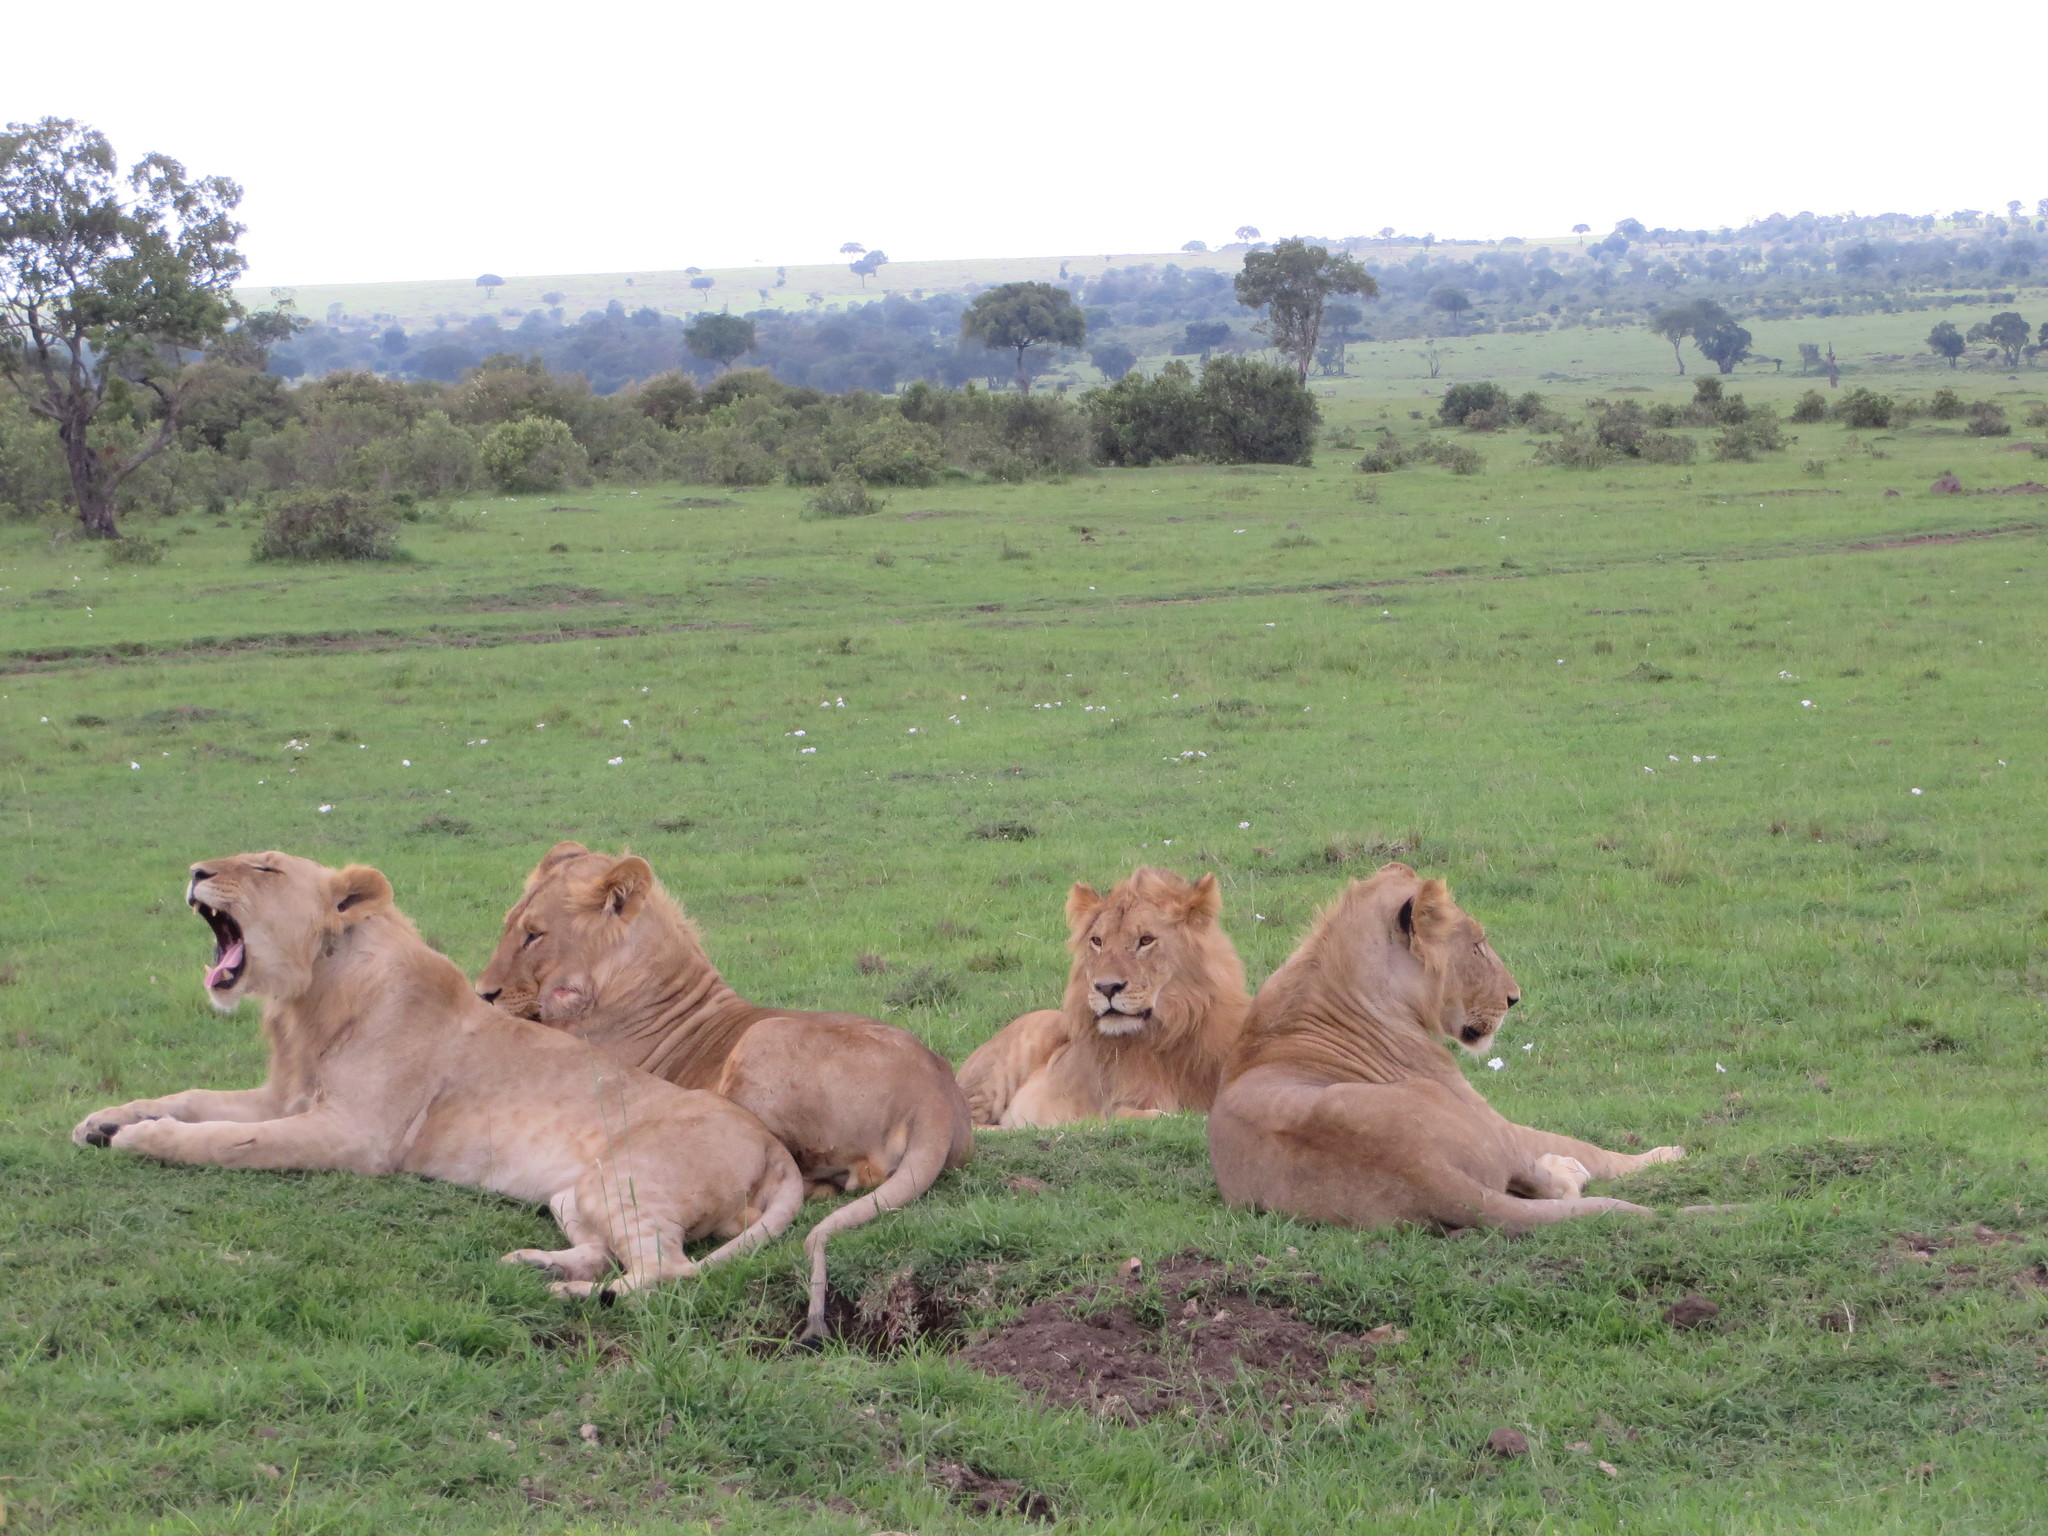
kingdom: Animalia
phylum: Chordata
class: Mammalia
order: Carnivora
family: Felidae
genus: Panthera
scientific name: Panthera leo
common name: Lion
